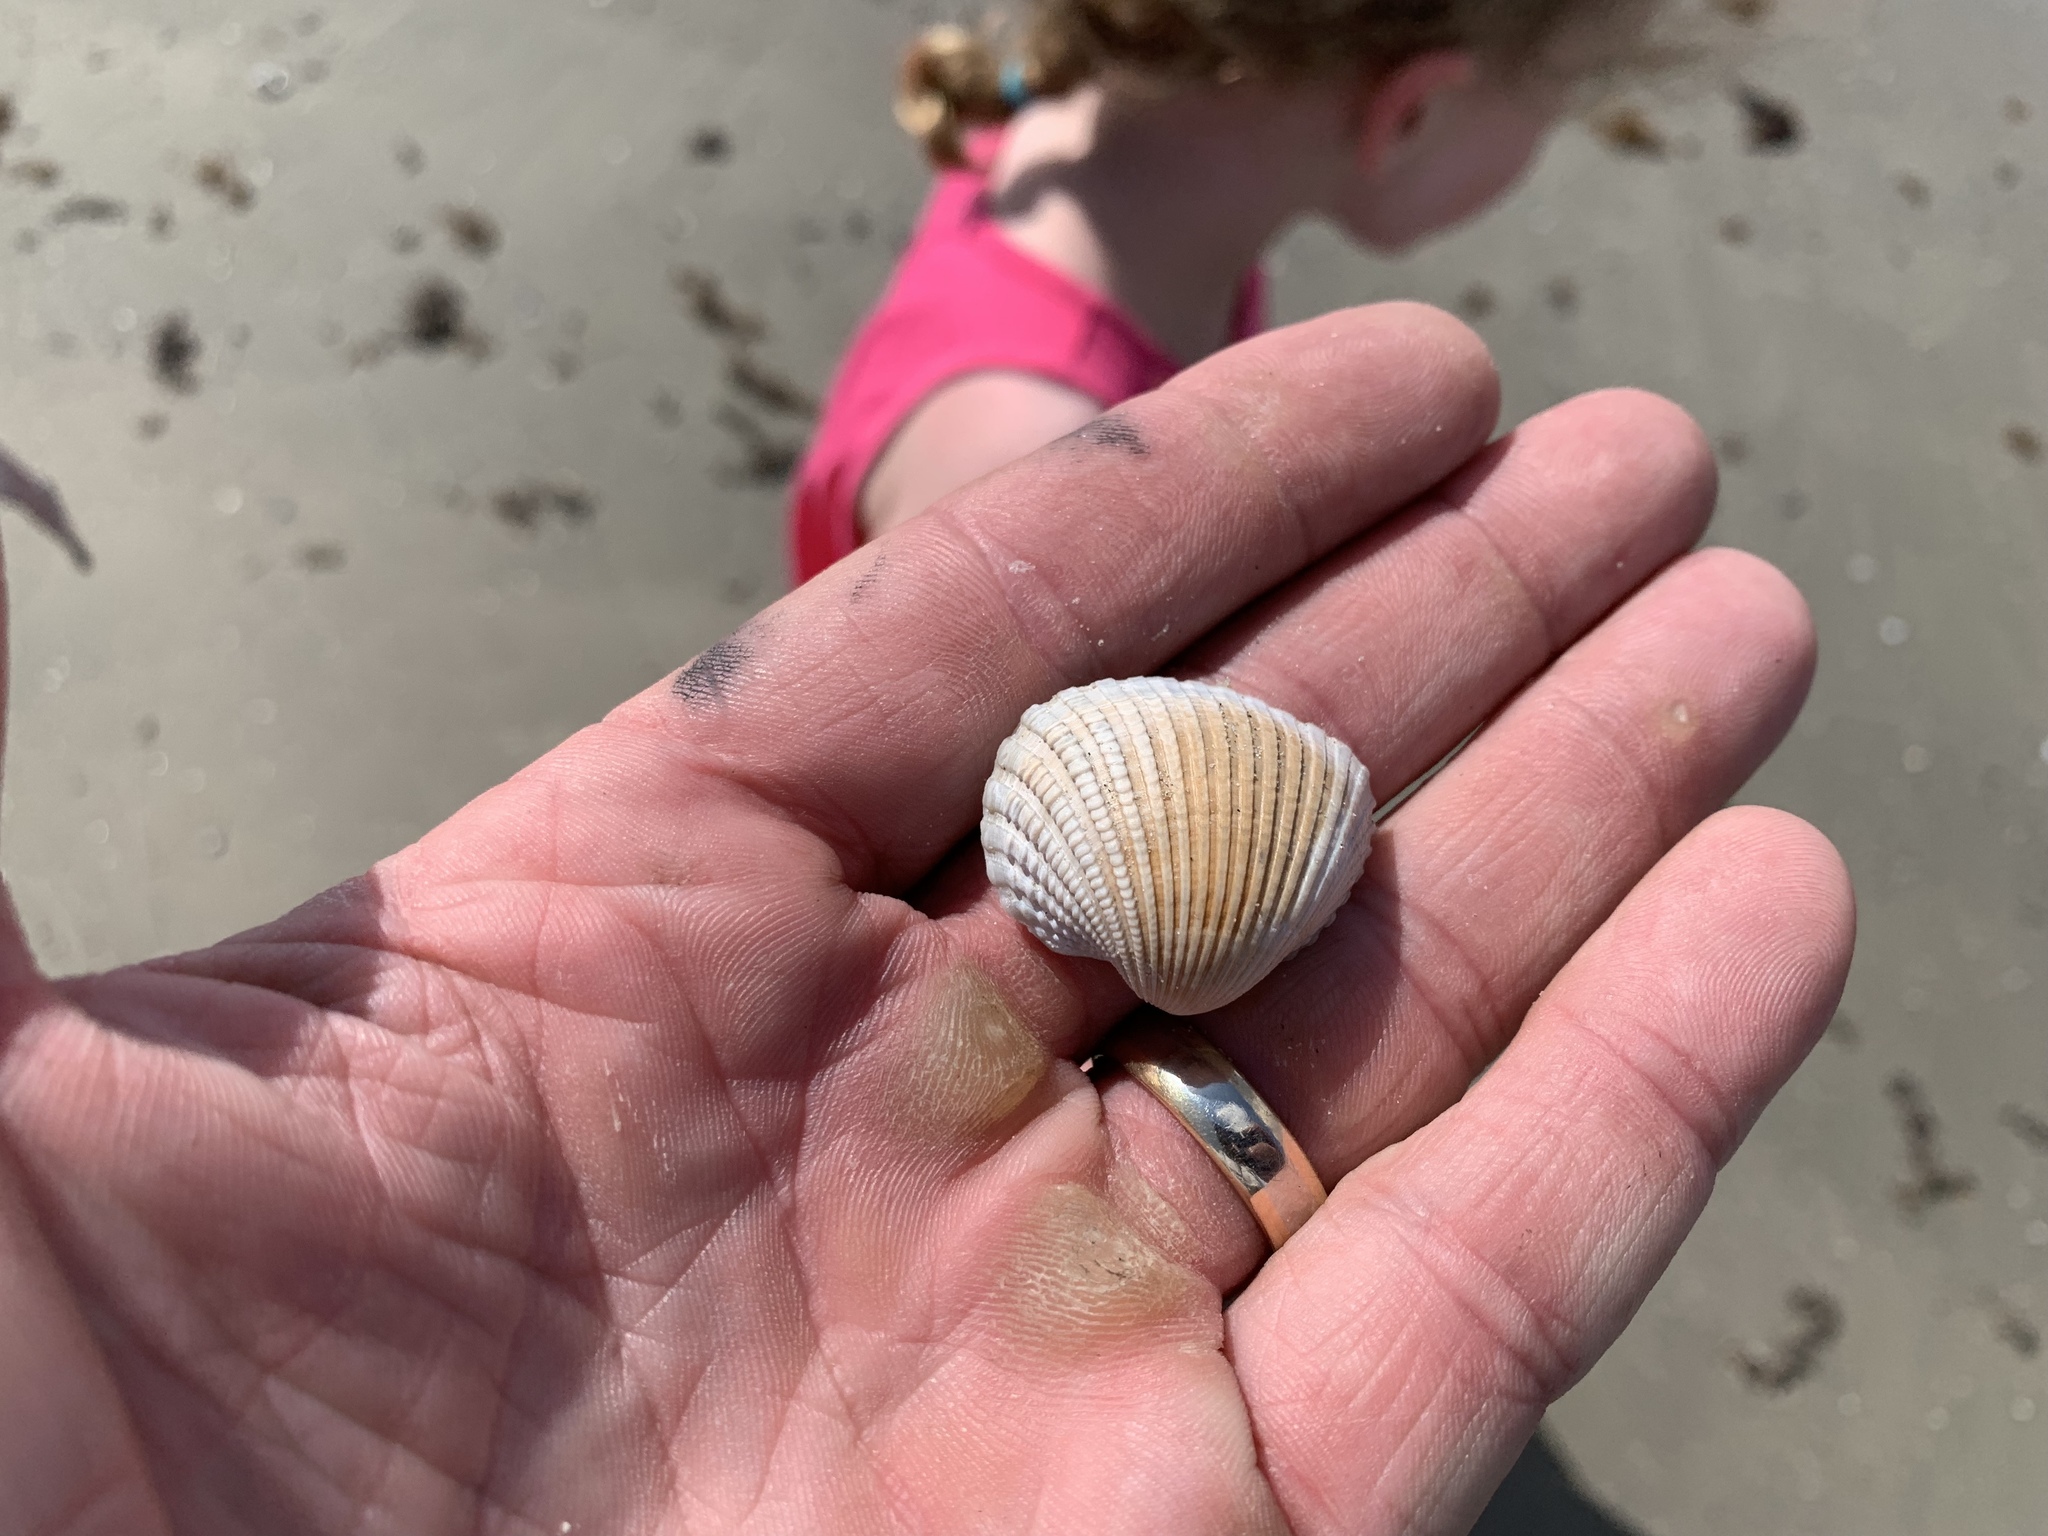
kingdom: Animalia
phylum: Mollusca
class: Bivalvia
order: Arcida
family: Arcidae
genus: Anadara
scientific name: Anadara brasiliana
